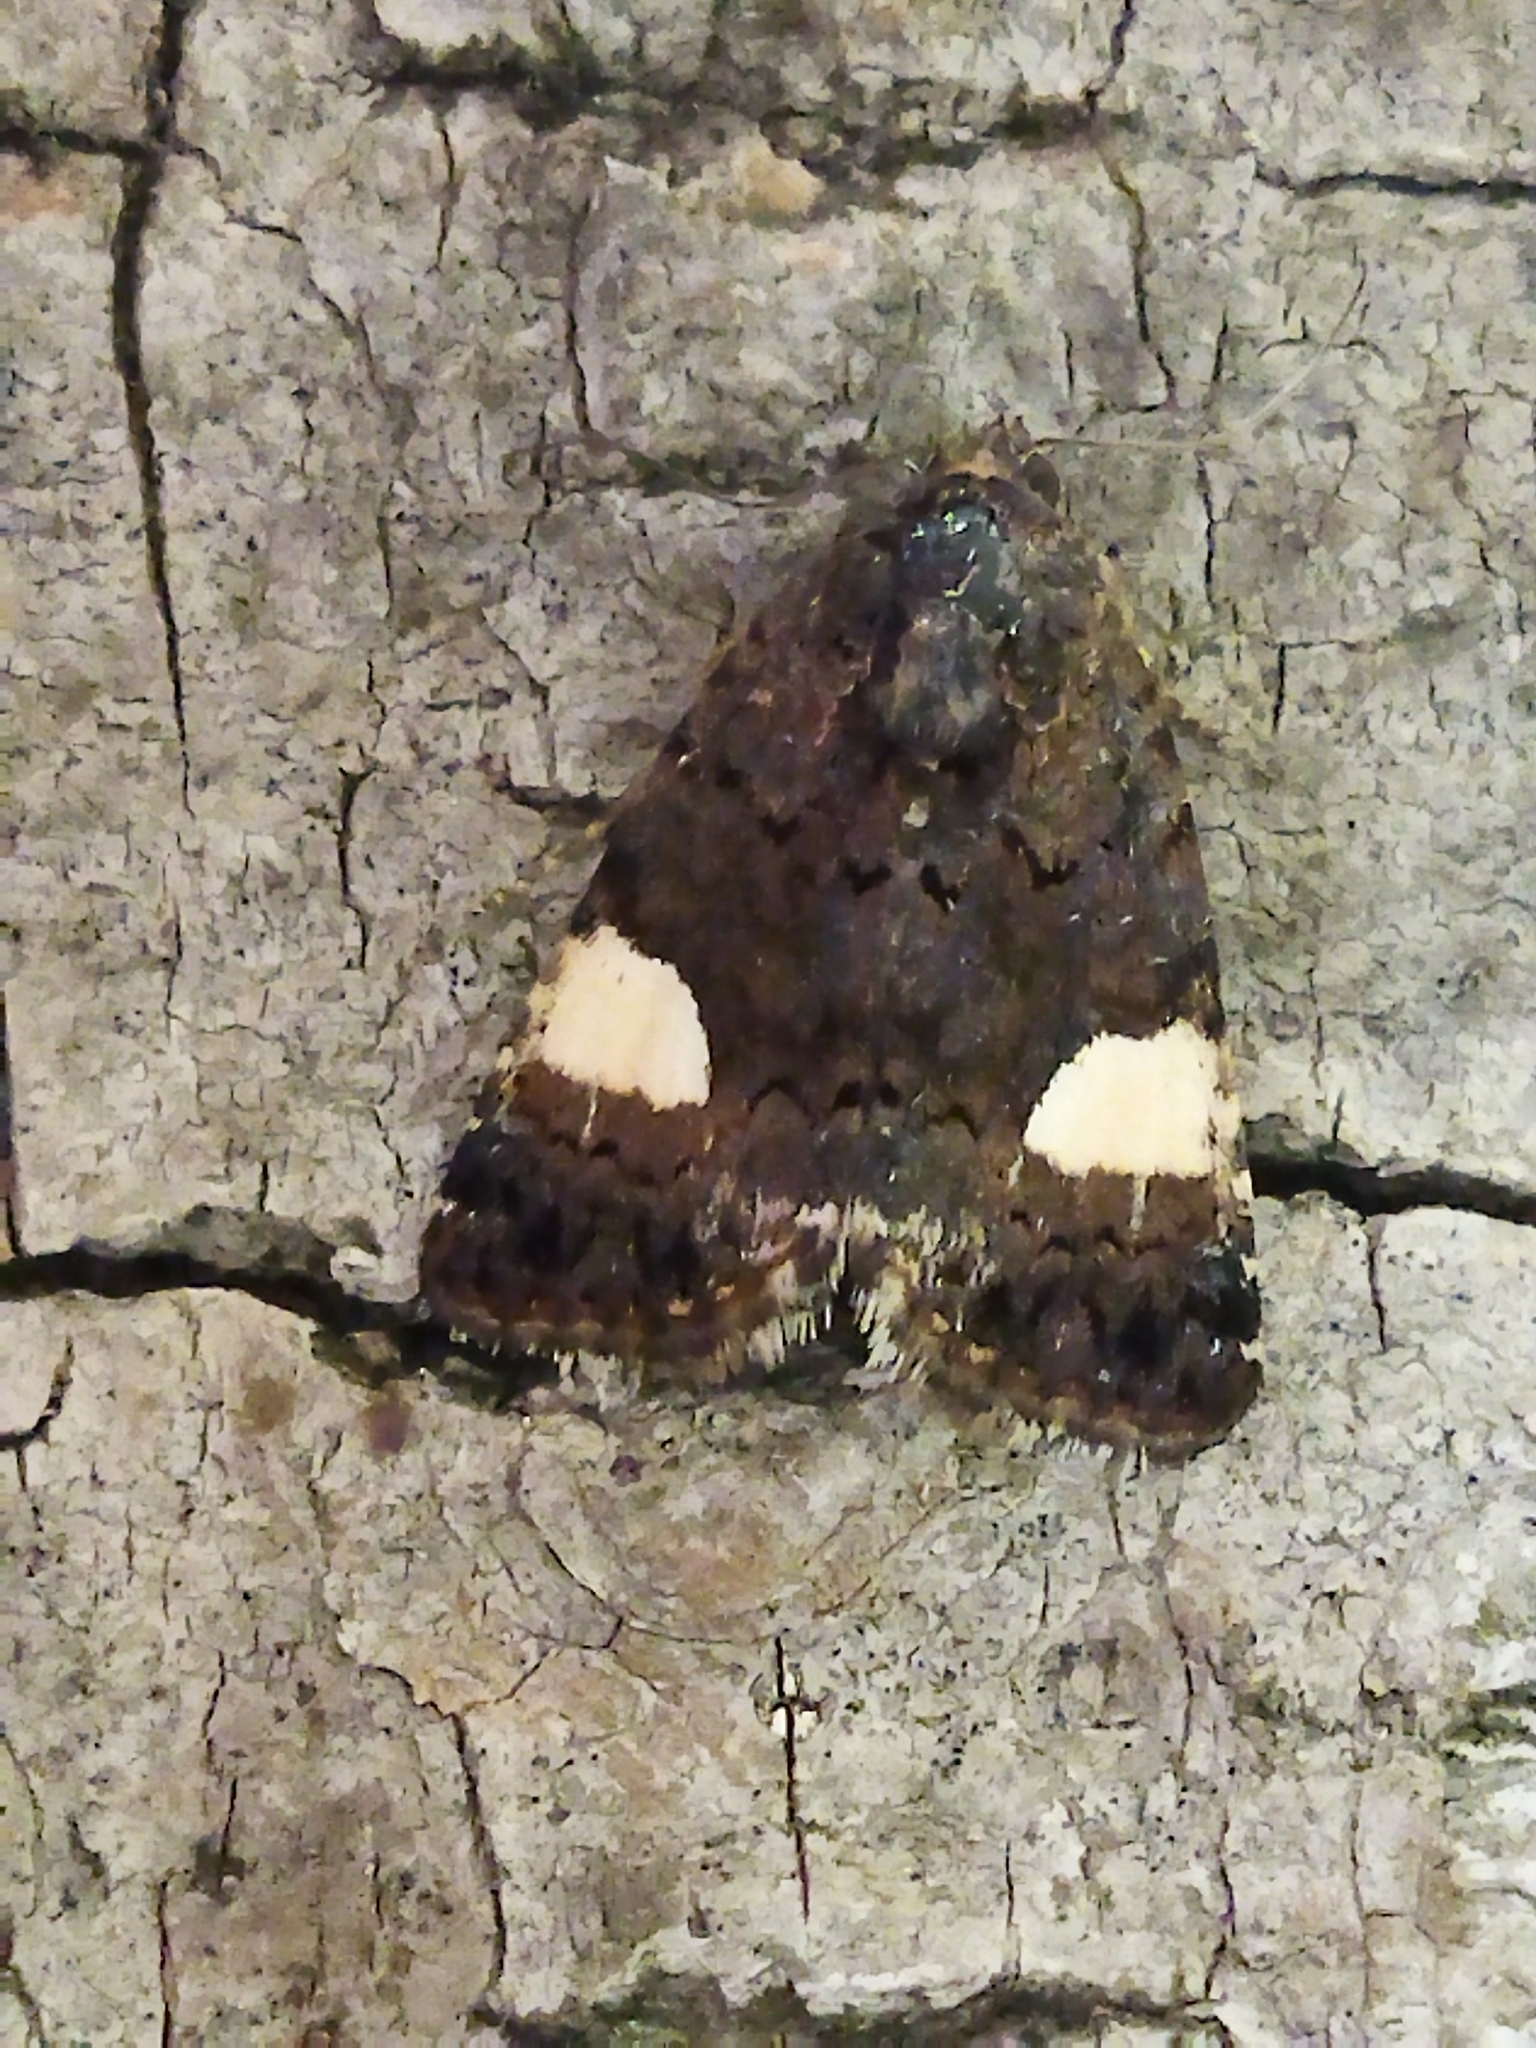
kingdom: Animalia
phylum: Arthropoda
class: Insecta
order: Lepidoptera
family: Erebidae
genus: Tyta
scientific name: Tyta luctuosa
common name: Four-spotted
